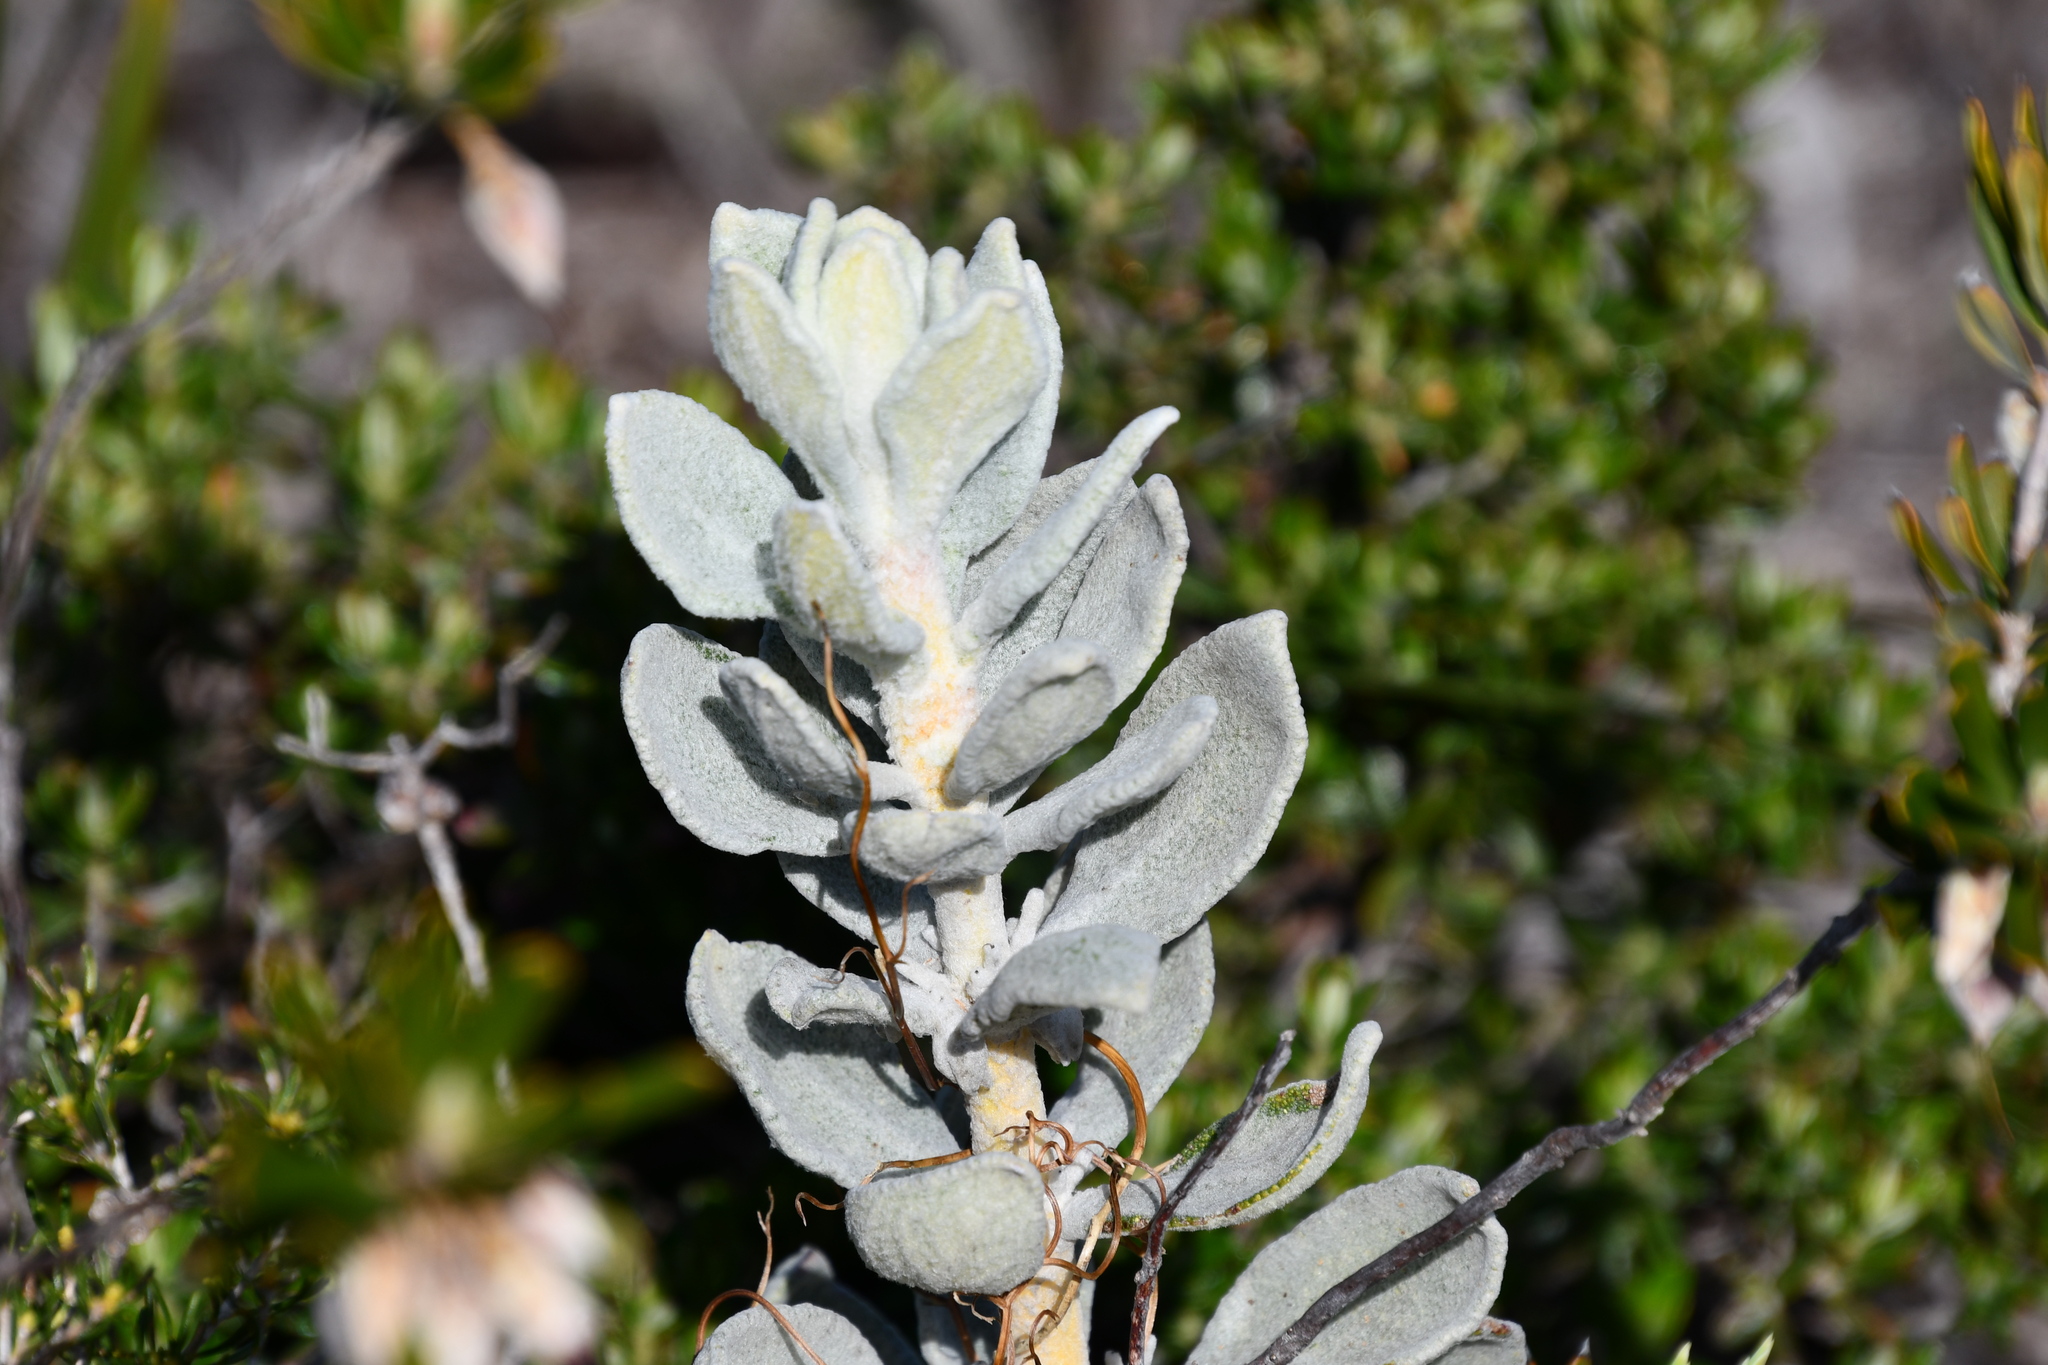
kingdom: Plantae
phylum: Tracheophyta
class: Magnoliopsida
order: Lamiales
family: Lamiaceae
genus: Quoya
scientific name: Quoya verbascina
